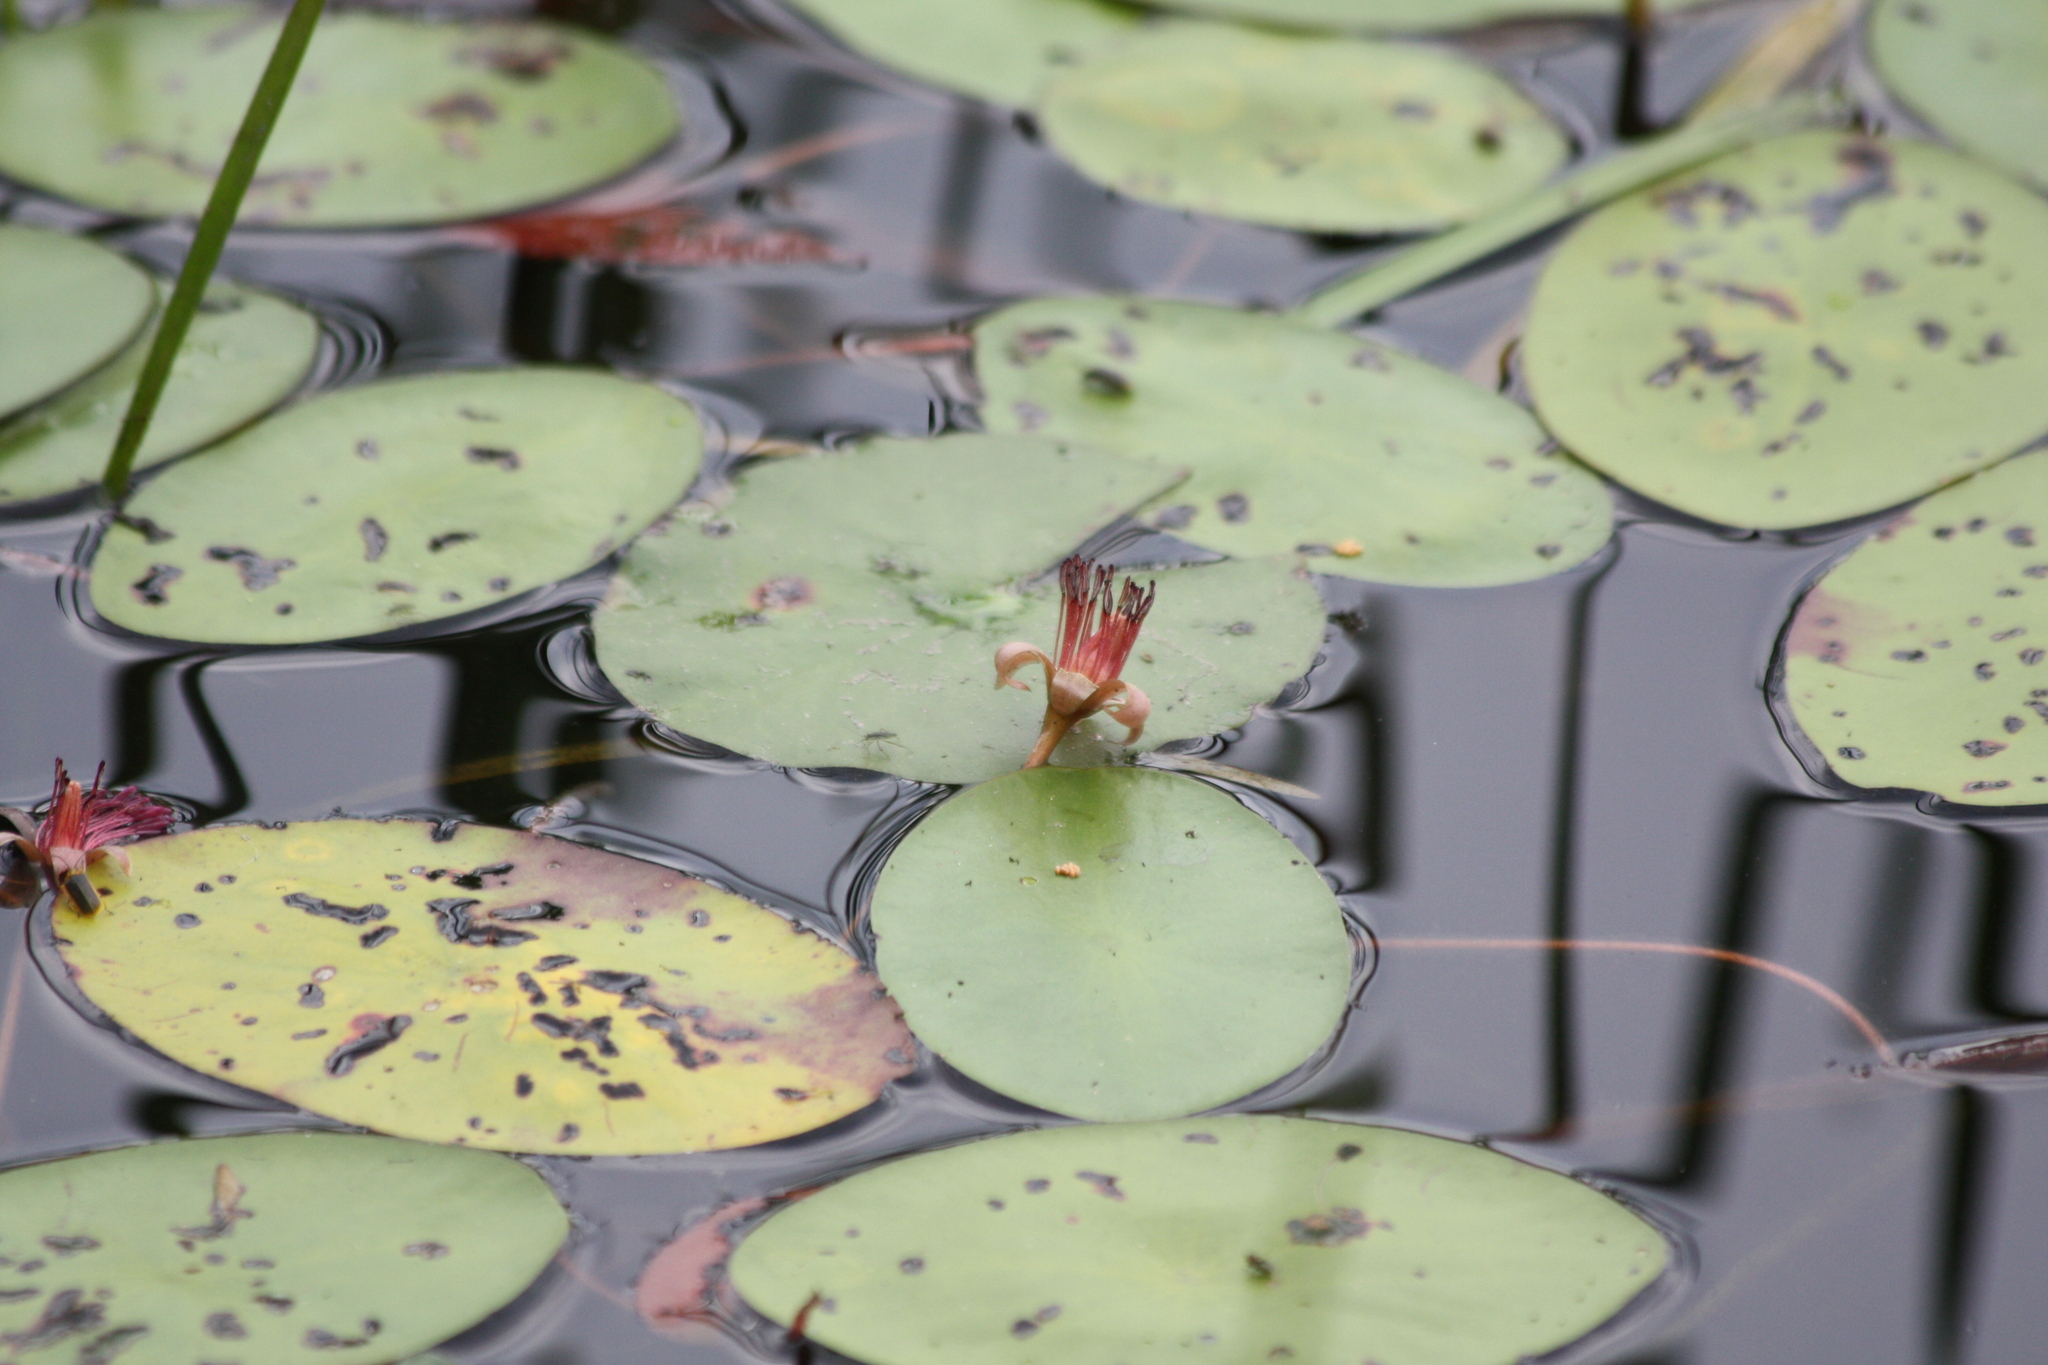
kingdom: Plantae
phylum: Tracheophyta
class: Magnoliopsida
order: Nymphaeales
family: Cabombaceae
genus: Brasenia
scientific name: Brasenia schreberi
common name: Water-shield
